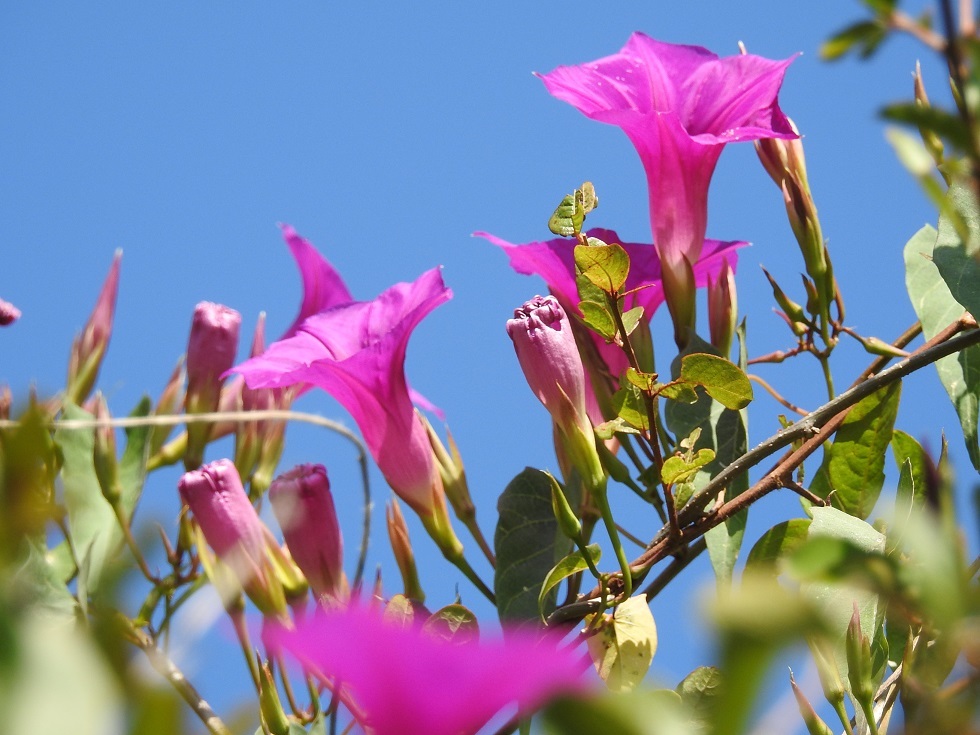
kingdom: Plantae
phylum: Tracheophyta
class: Magnoliopsida
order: Solanales
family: Convolvulaceae
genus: Ipomoea
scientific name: Ipomoea bernoulliana
